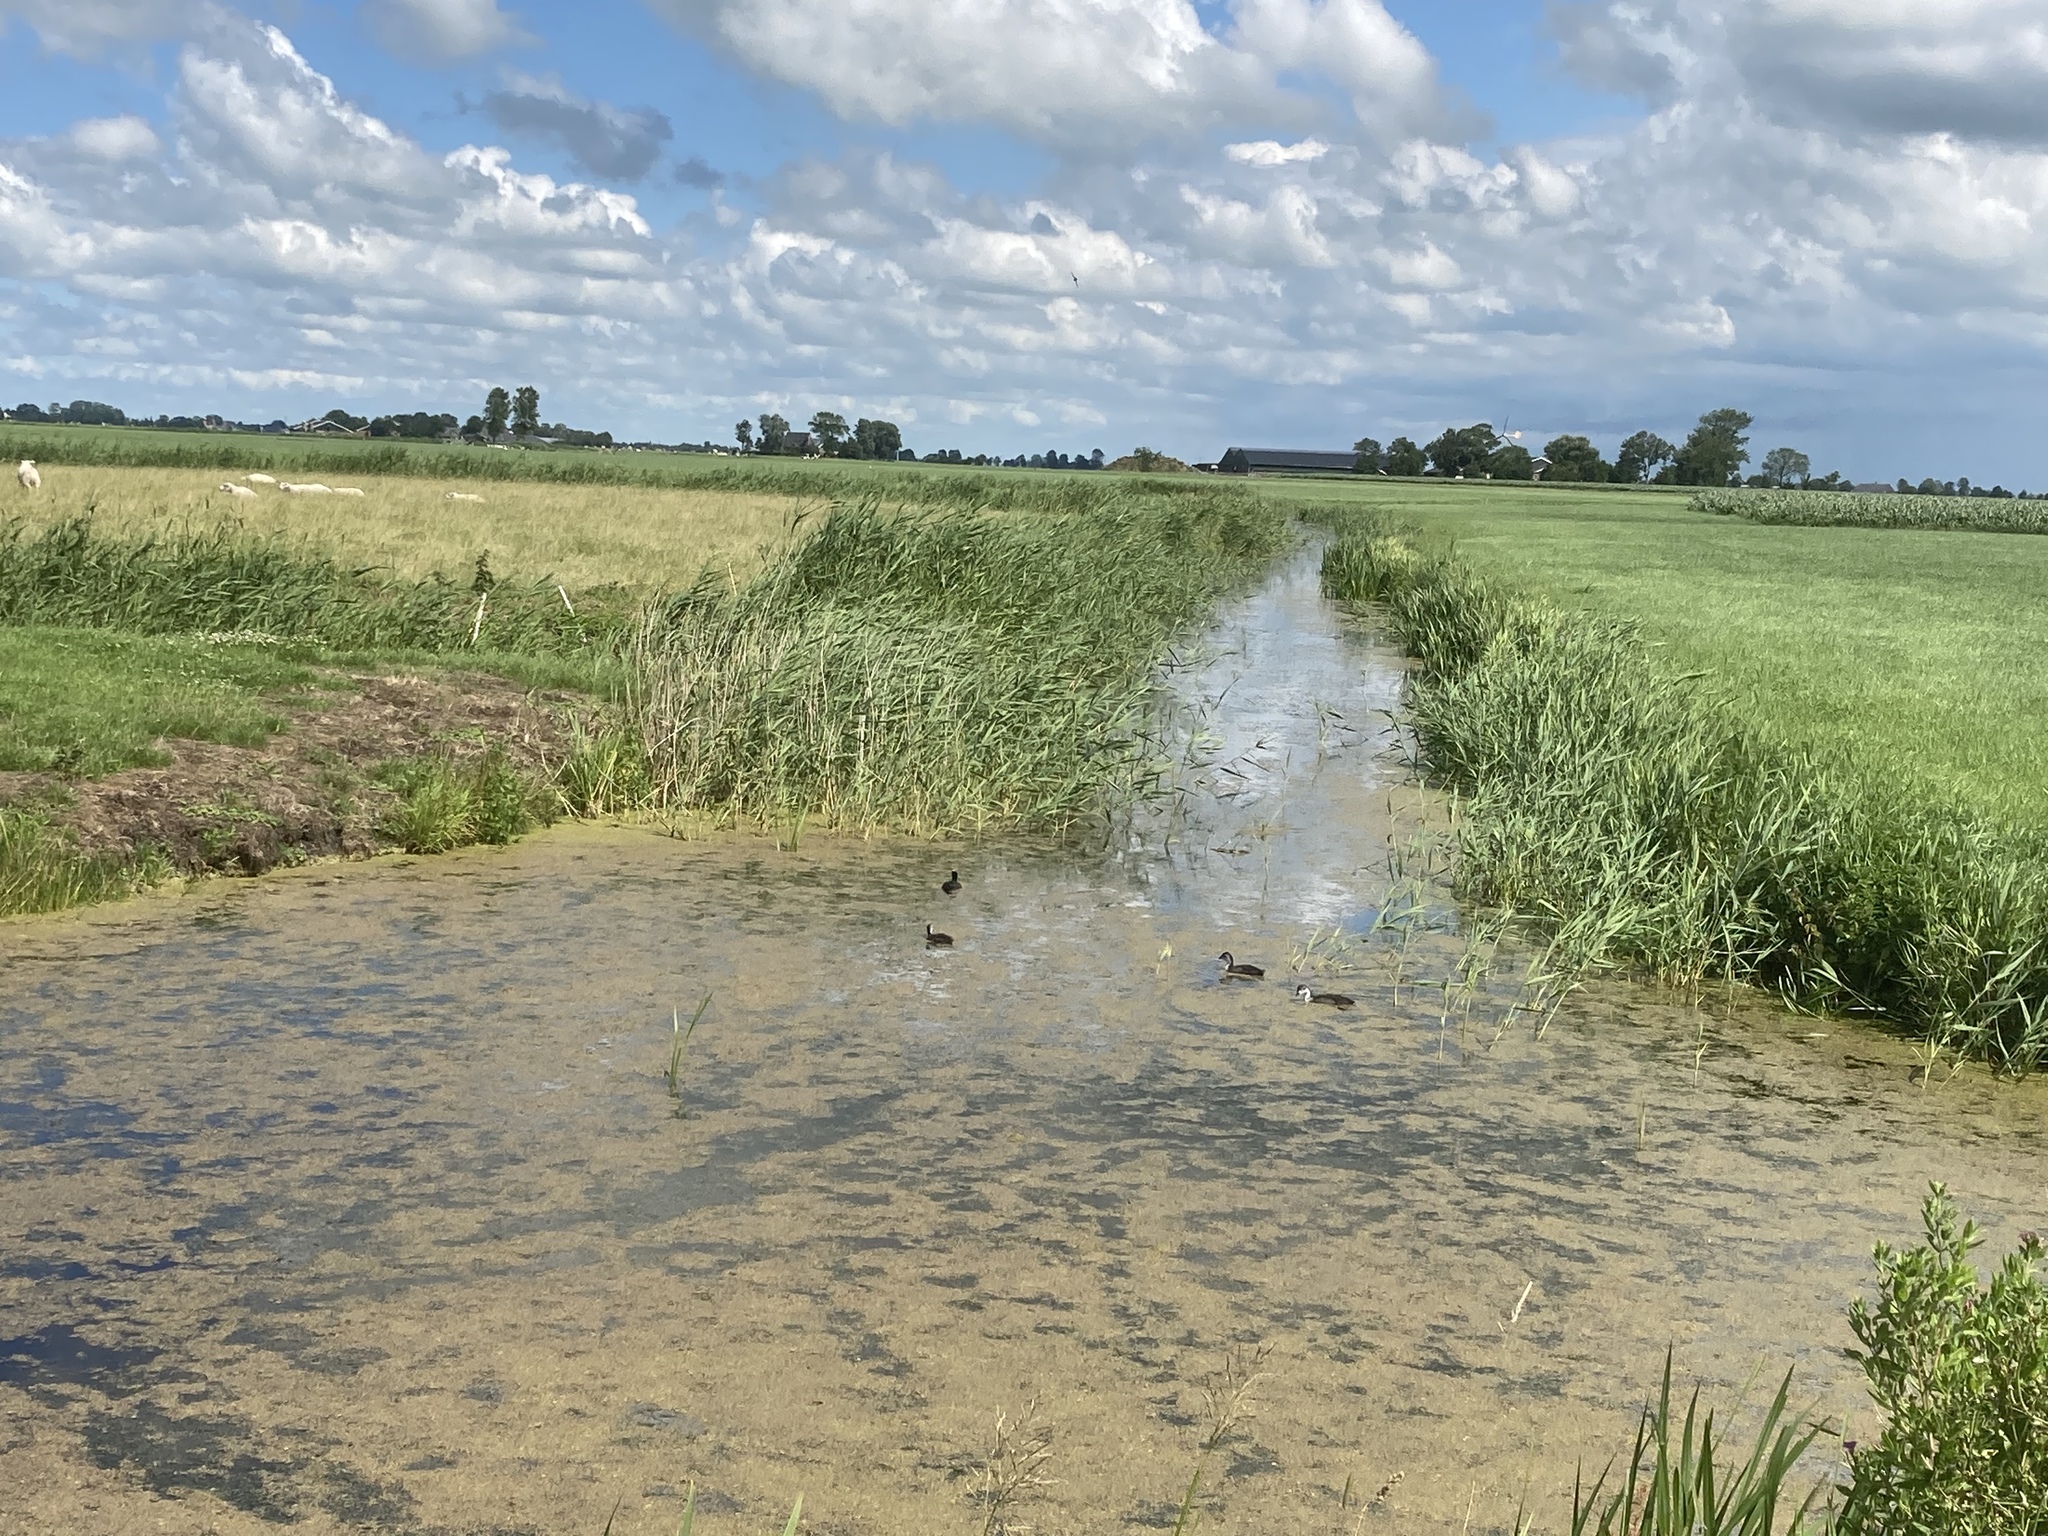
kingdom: Animalia
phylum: Chordata
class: Aves
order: Gruiformes
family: Rallidae
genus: Fulica
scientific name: Fulica atra
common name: Eurasian coot
